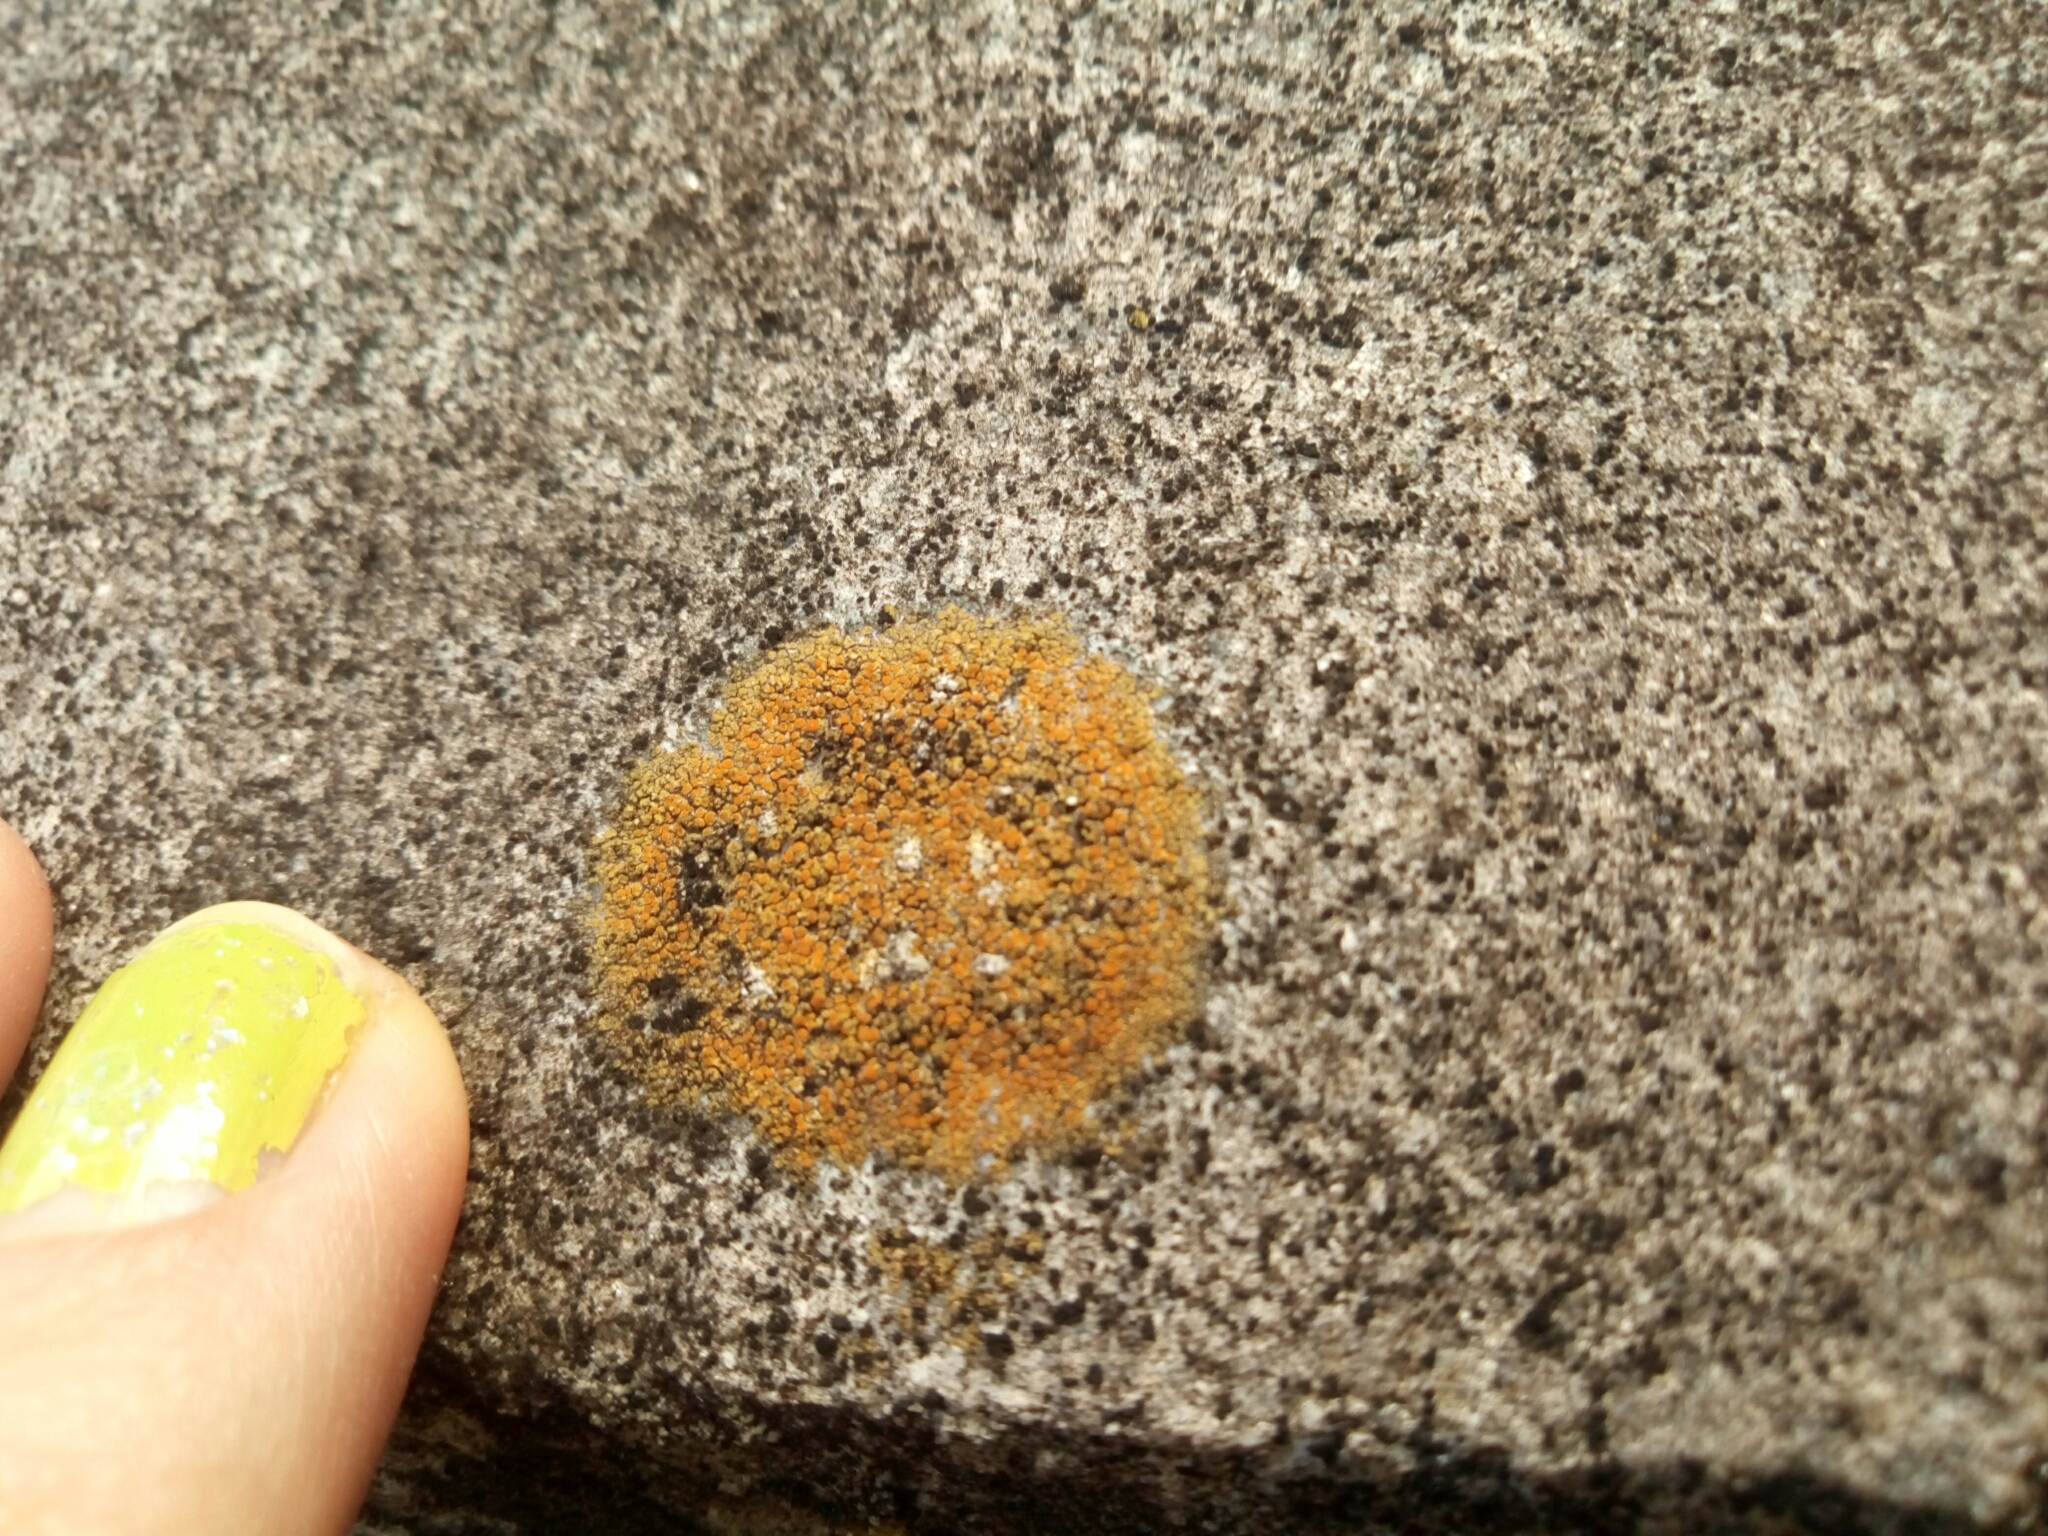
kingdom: Fungi
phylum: Ascomycota
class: Lecanoromycetes
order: Teloschistales
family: Teloschistaceae
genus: Gyalolechia
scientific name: Gyalolechia flavovirescens
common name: Sulphur firedot
